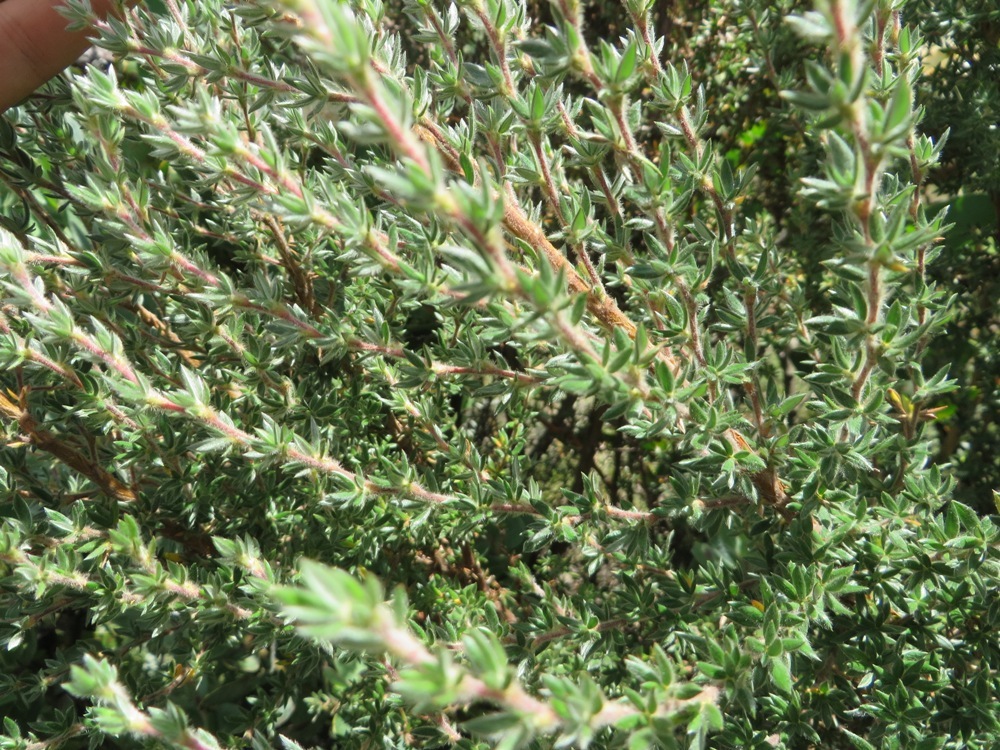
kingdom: Plantae
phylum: Tracheophyta
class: Magnoliopsida
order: Rosales
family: Rosaceae
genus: Cliffortia
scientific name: Cliffortia dispar
